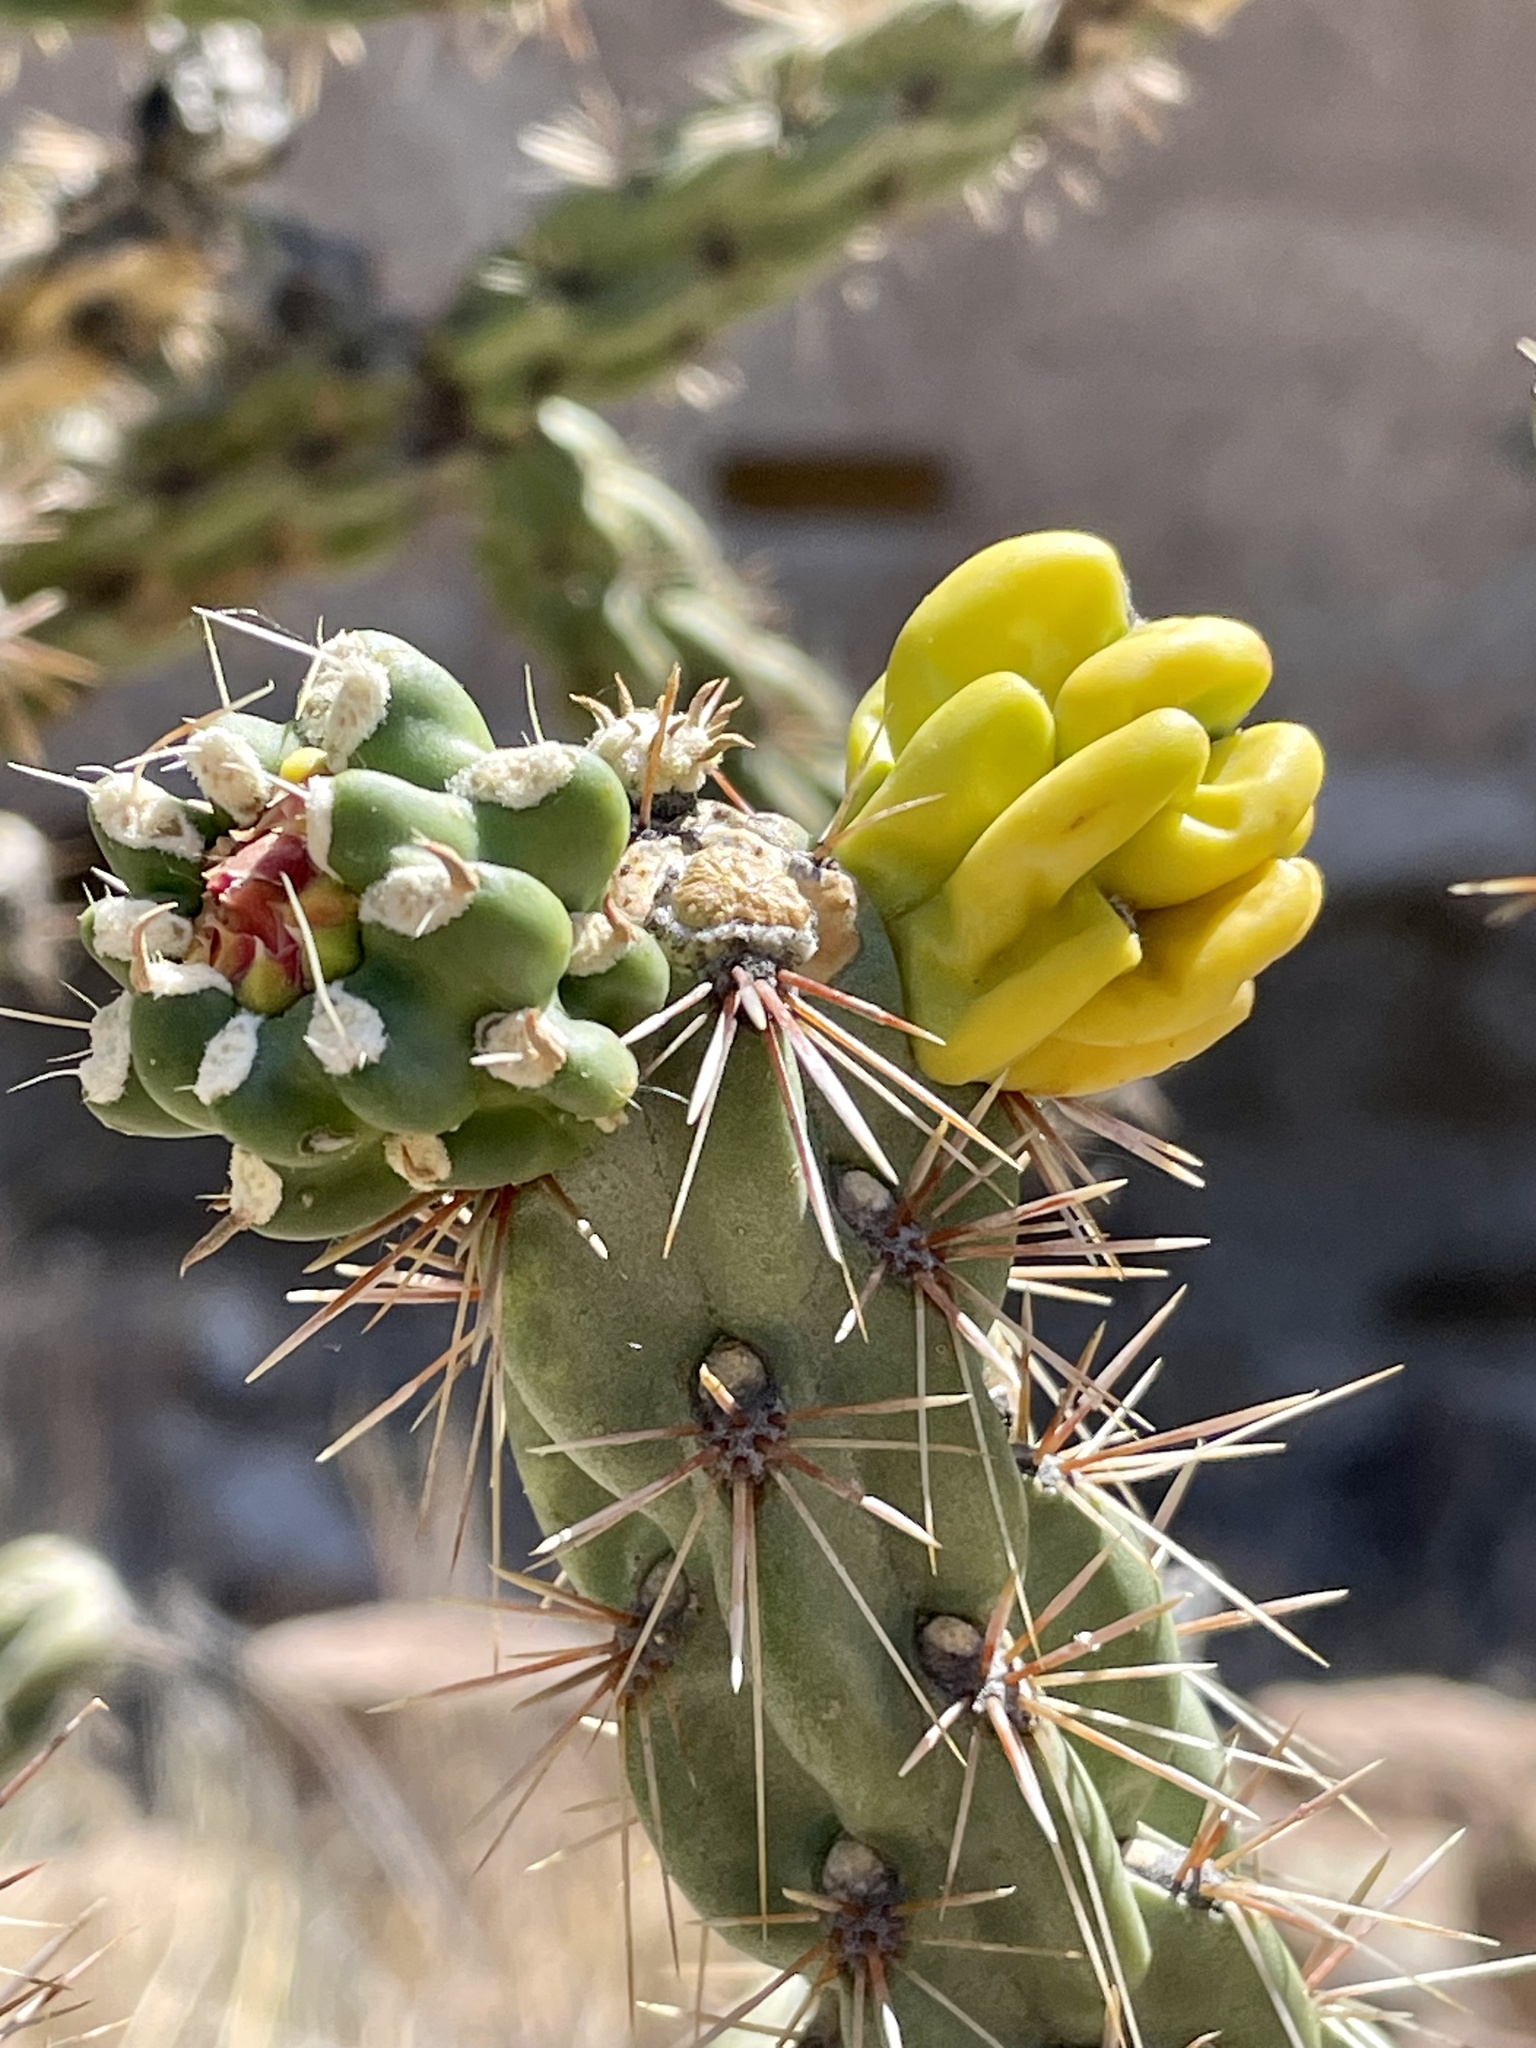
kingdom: Plantae
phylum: Tracheophyta
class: Magnoliopsida
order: Caryophyllales
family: Cactaceae
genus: Cylindropuntia
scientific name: Cylindropuntia imbricata
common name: Candelabrum cactus
